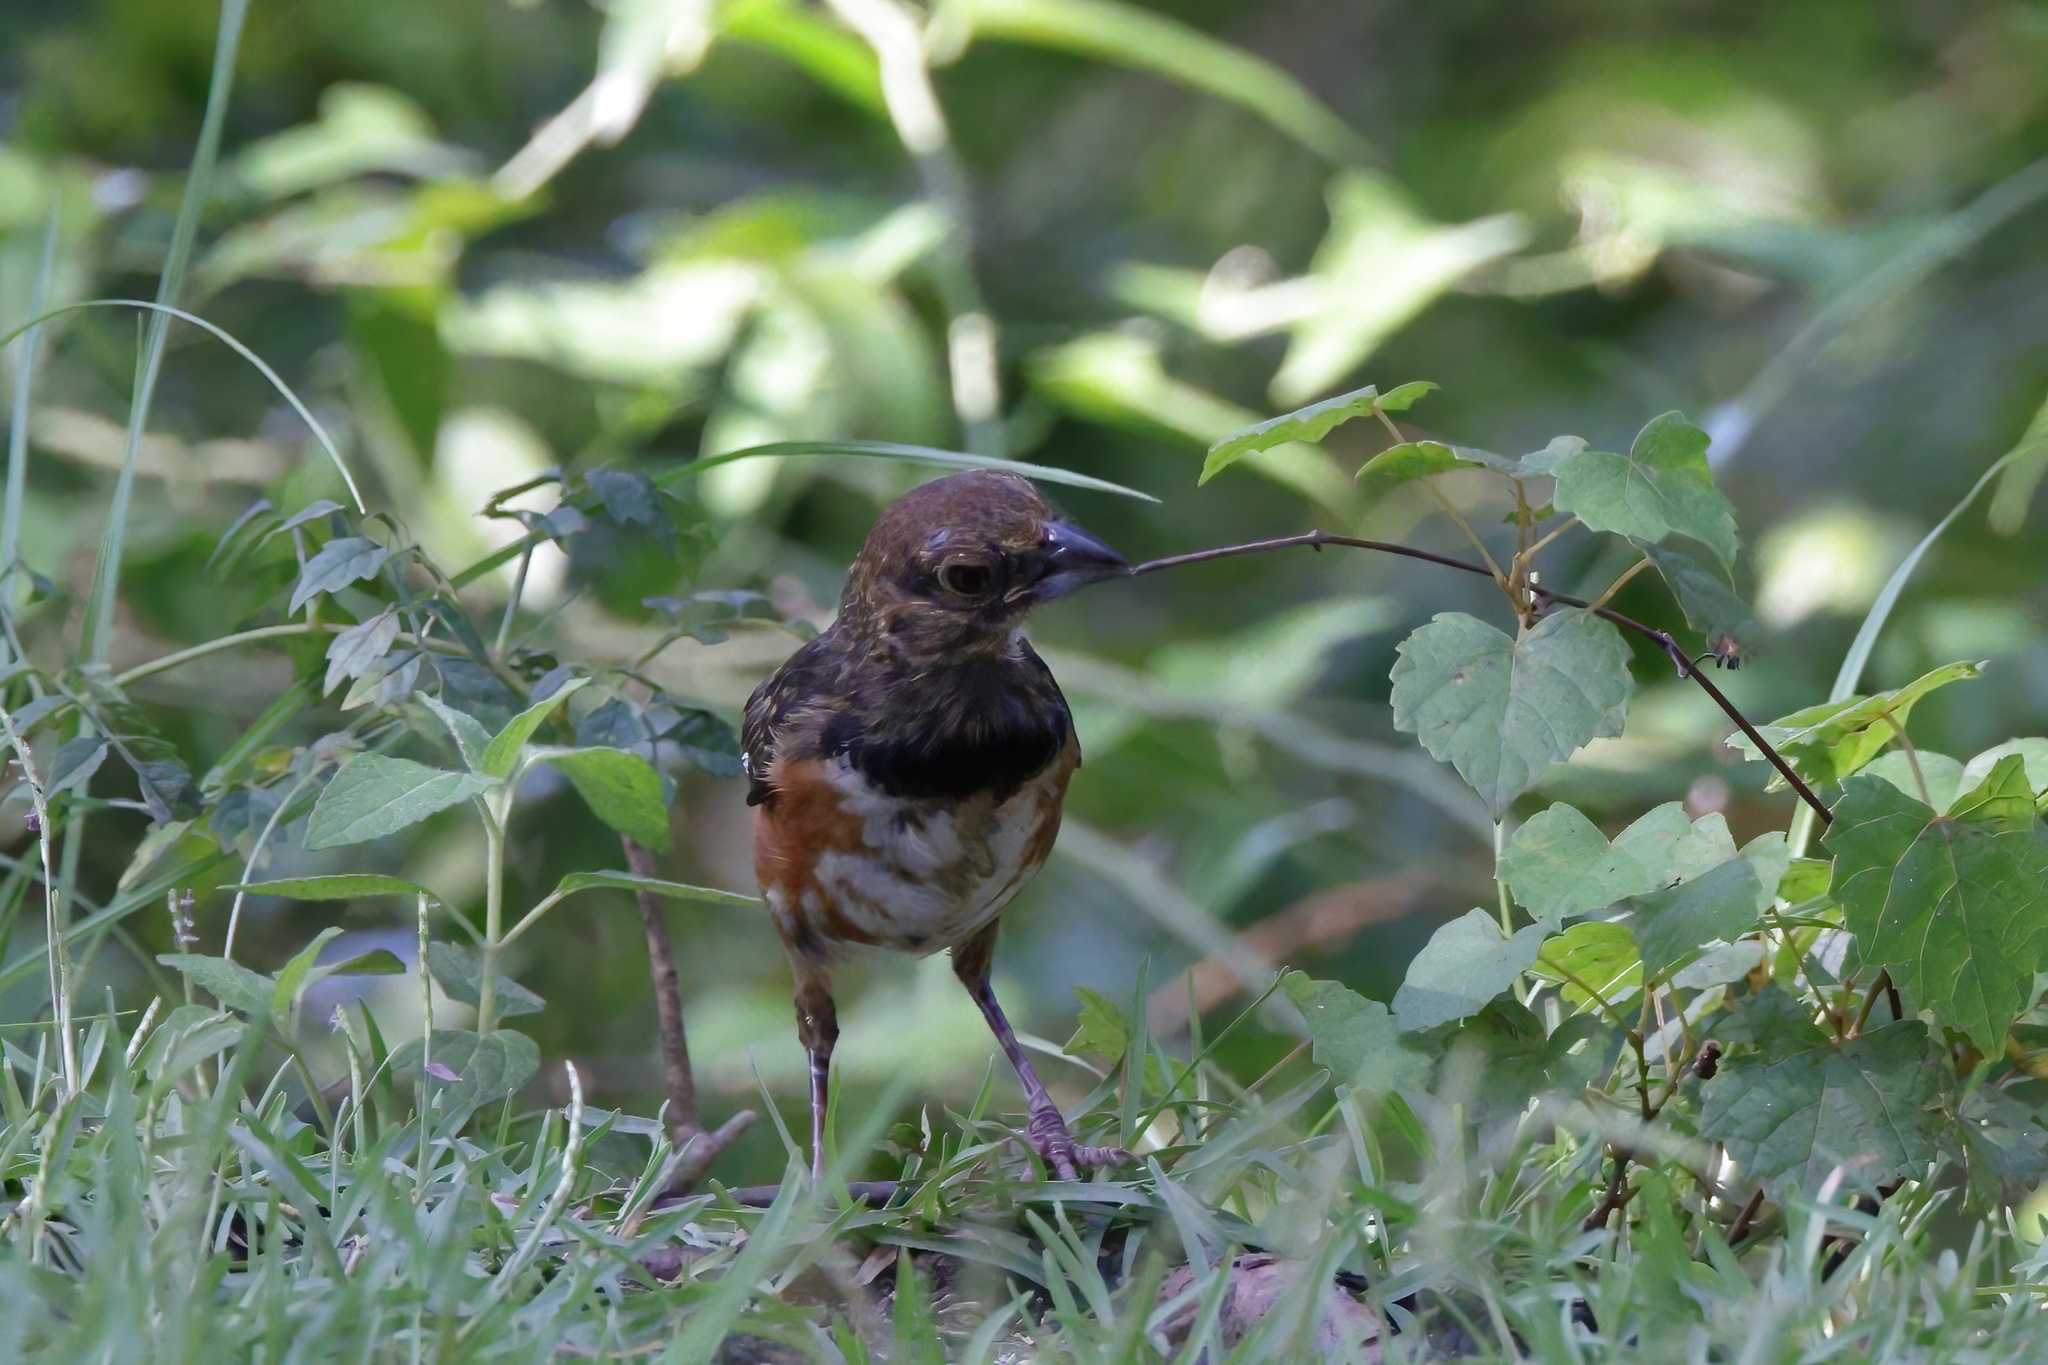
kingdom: Animalia
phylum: Chordata
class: Aves
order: Passeriformes
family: Passerellidae
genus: Pipilo
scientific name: Pipilo erythrophthalmus
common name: Eastern towhee
